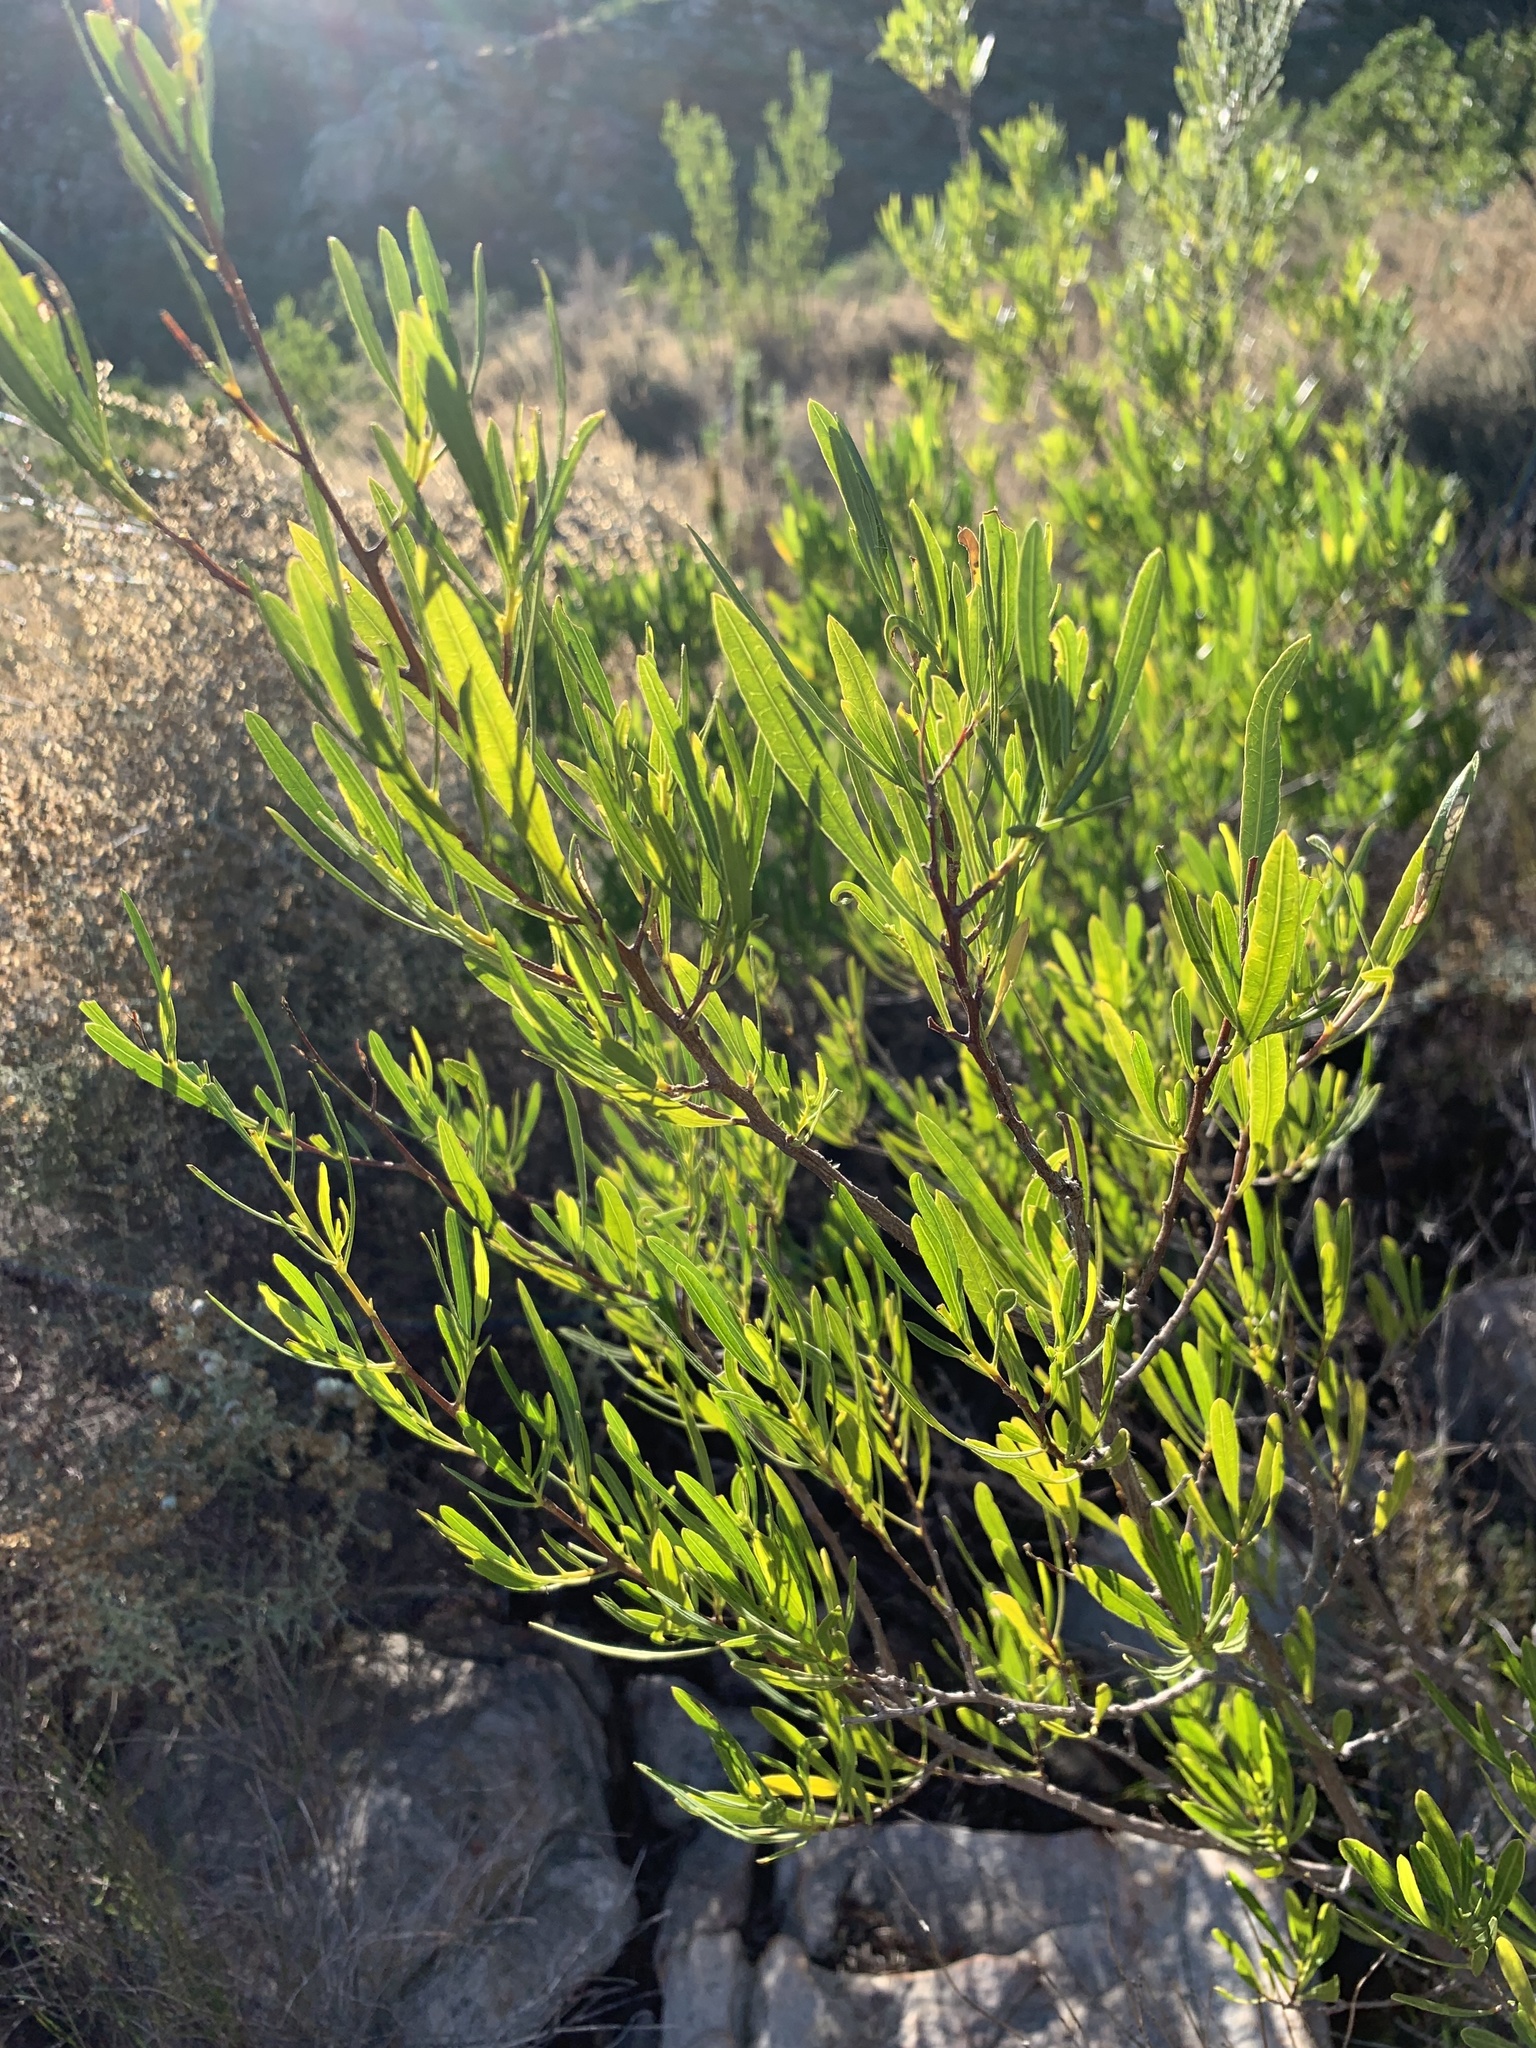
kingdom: Plantae
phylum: Tracheophyta
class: Magnoliopsida
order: Sapindales
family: Sapindaceae
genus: Dodonaea
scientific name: Dodonaea viscosa
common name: Hopbush
